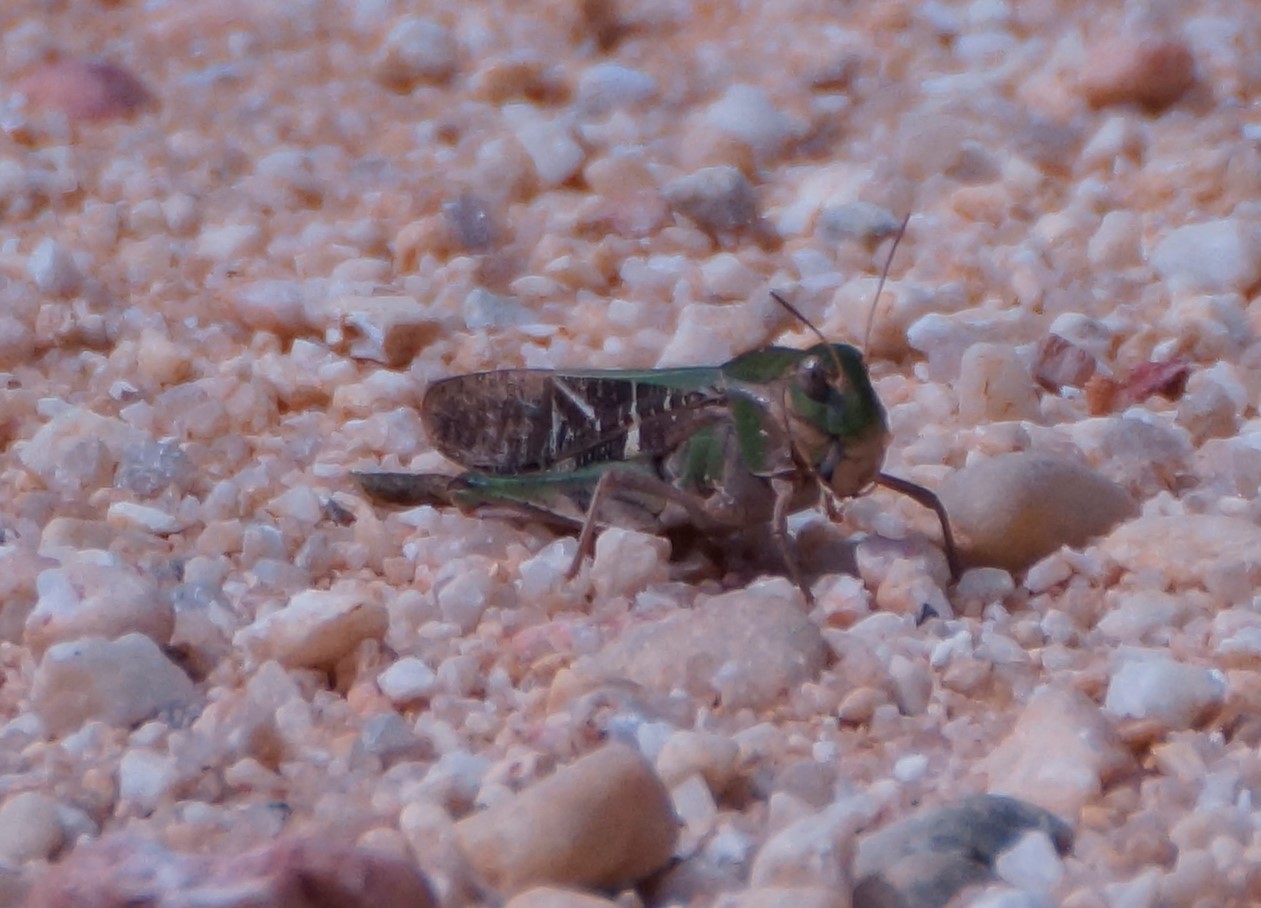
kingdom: Animalia
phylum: Arthropoda
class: Insecta
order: Orthoptera
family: Acrididae
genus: Gastrimargus
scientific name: Gastrimargus musicus
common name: Yellow-winged locust
